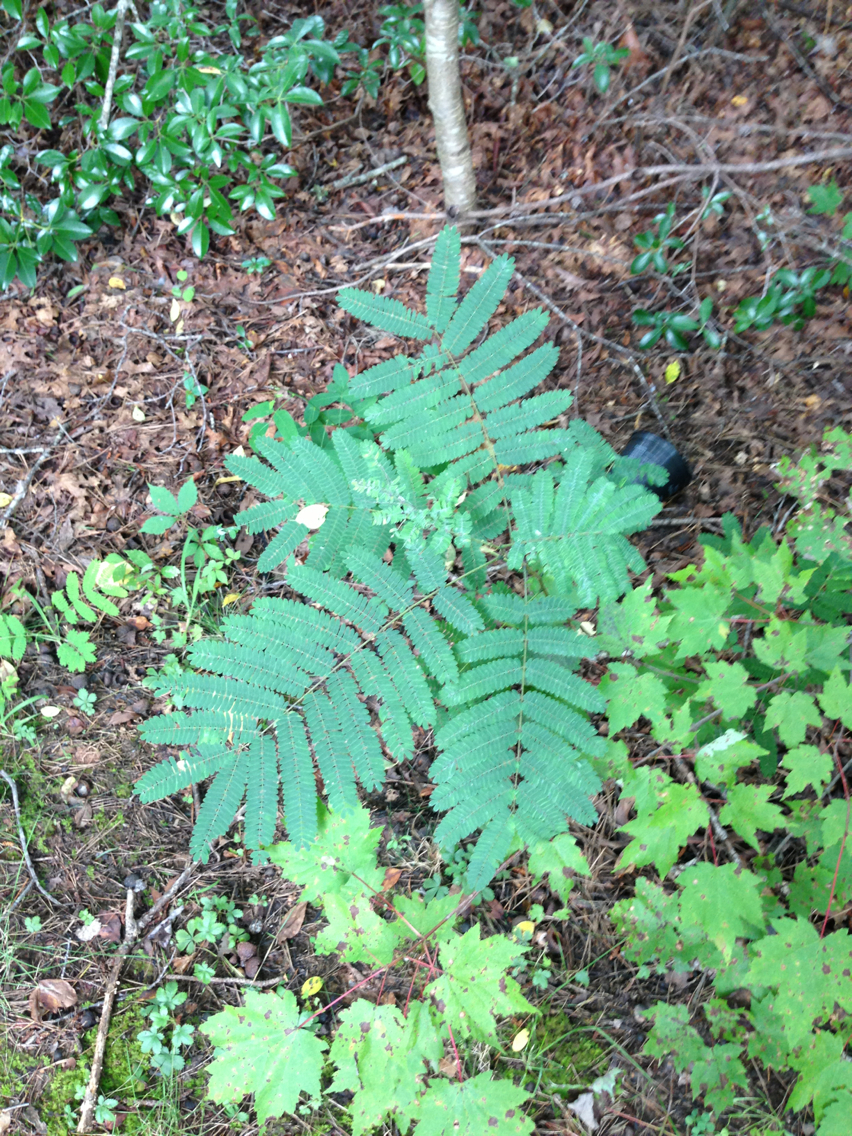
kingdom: Plantae
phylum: Tracheophyta
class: Magnoliopsida
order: Fabales
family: Fabaceae
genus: Albizia
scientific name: Albizia julibrissin
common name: Silktree
